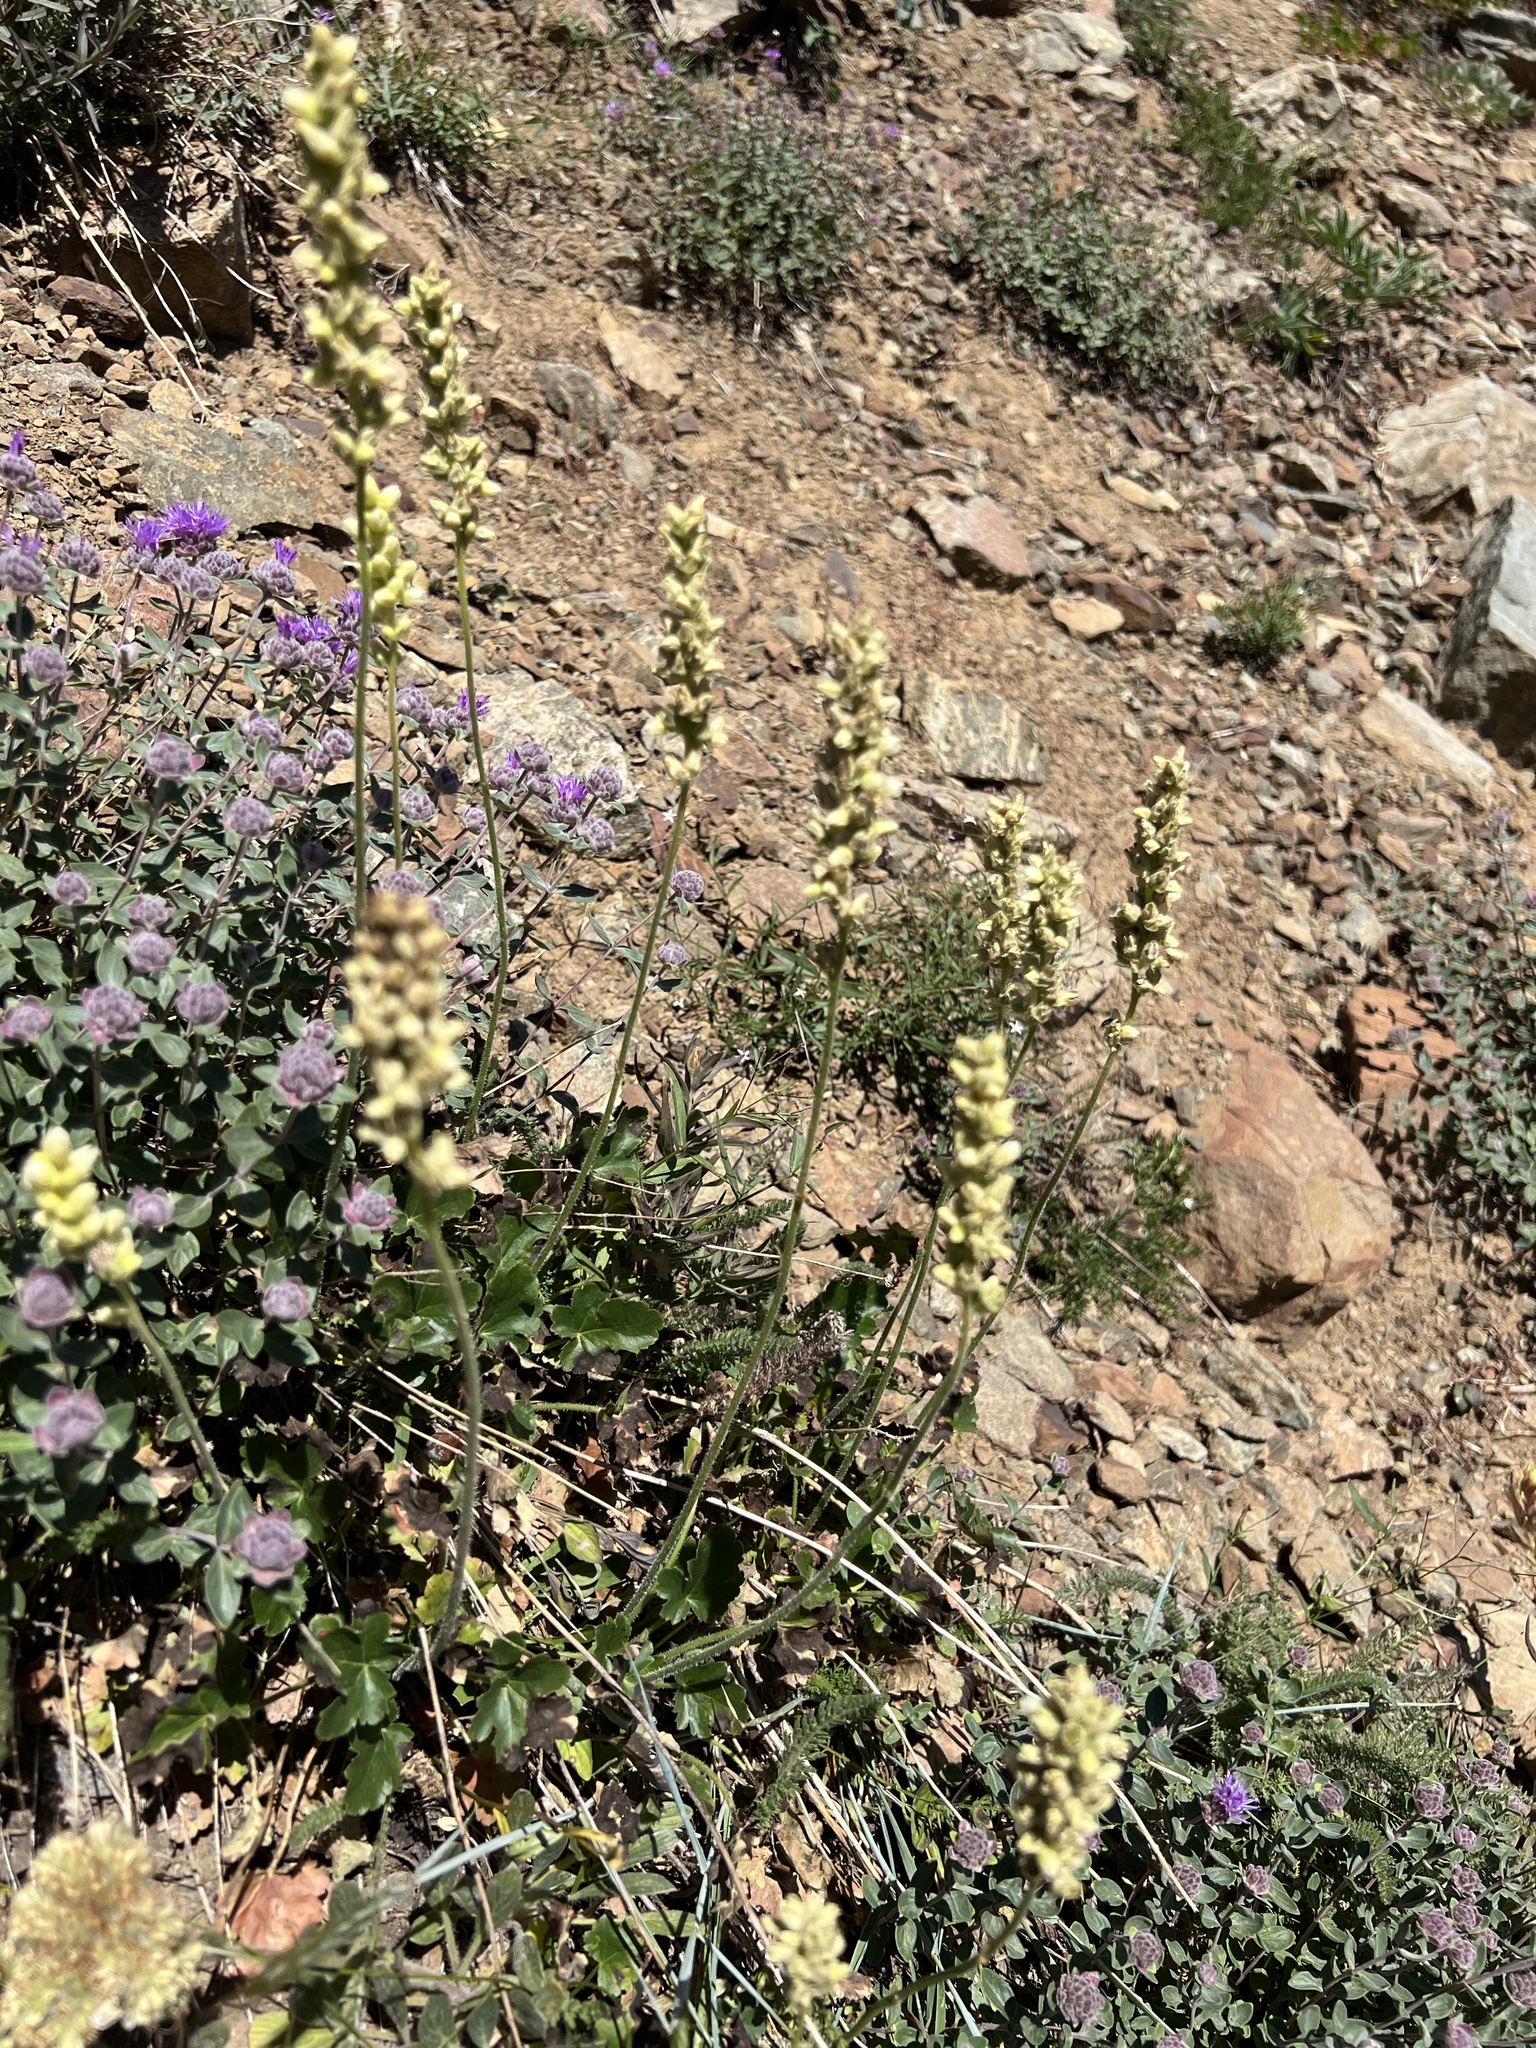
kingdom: Plantae
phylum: Tracheophyta
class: Magnoliopsida
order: Saxifragales
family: Saxifragaceae
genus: Heuchera
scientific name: Heuchera cylindrica
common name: Mat alumroot
